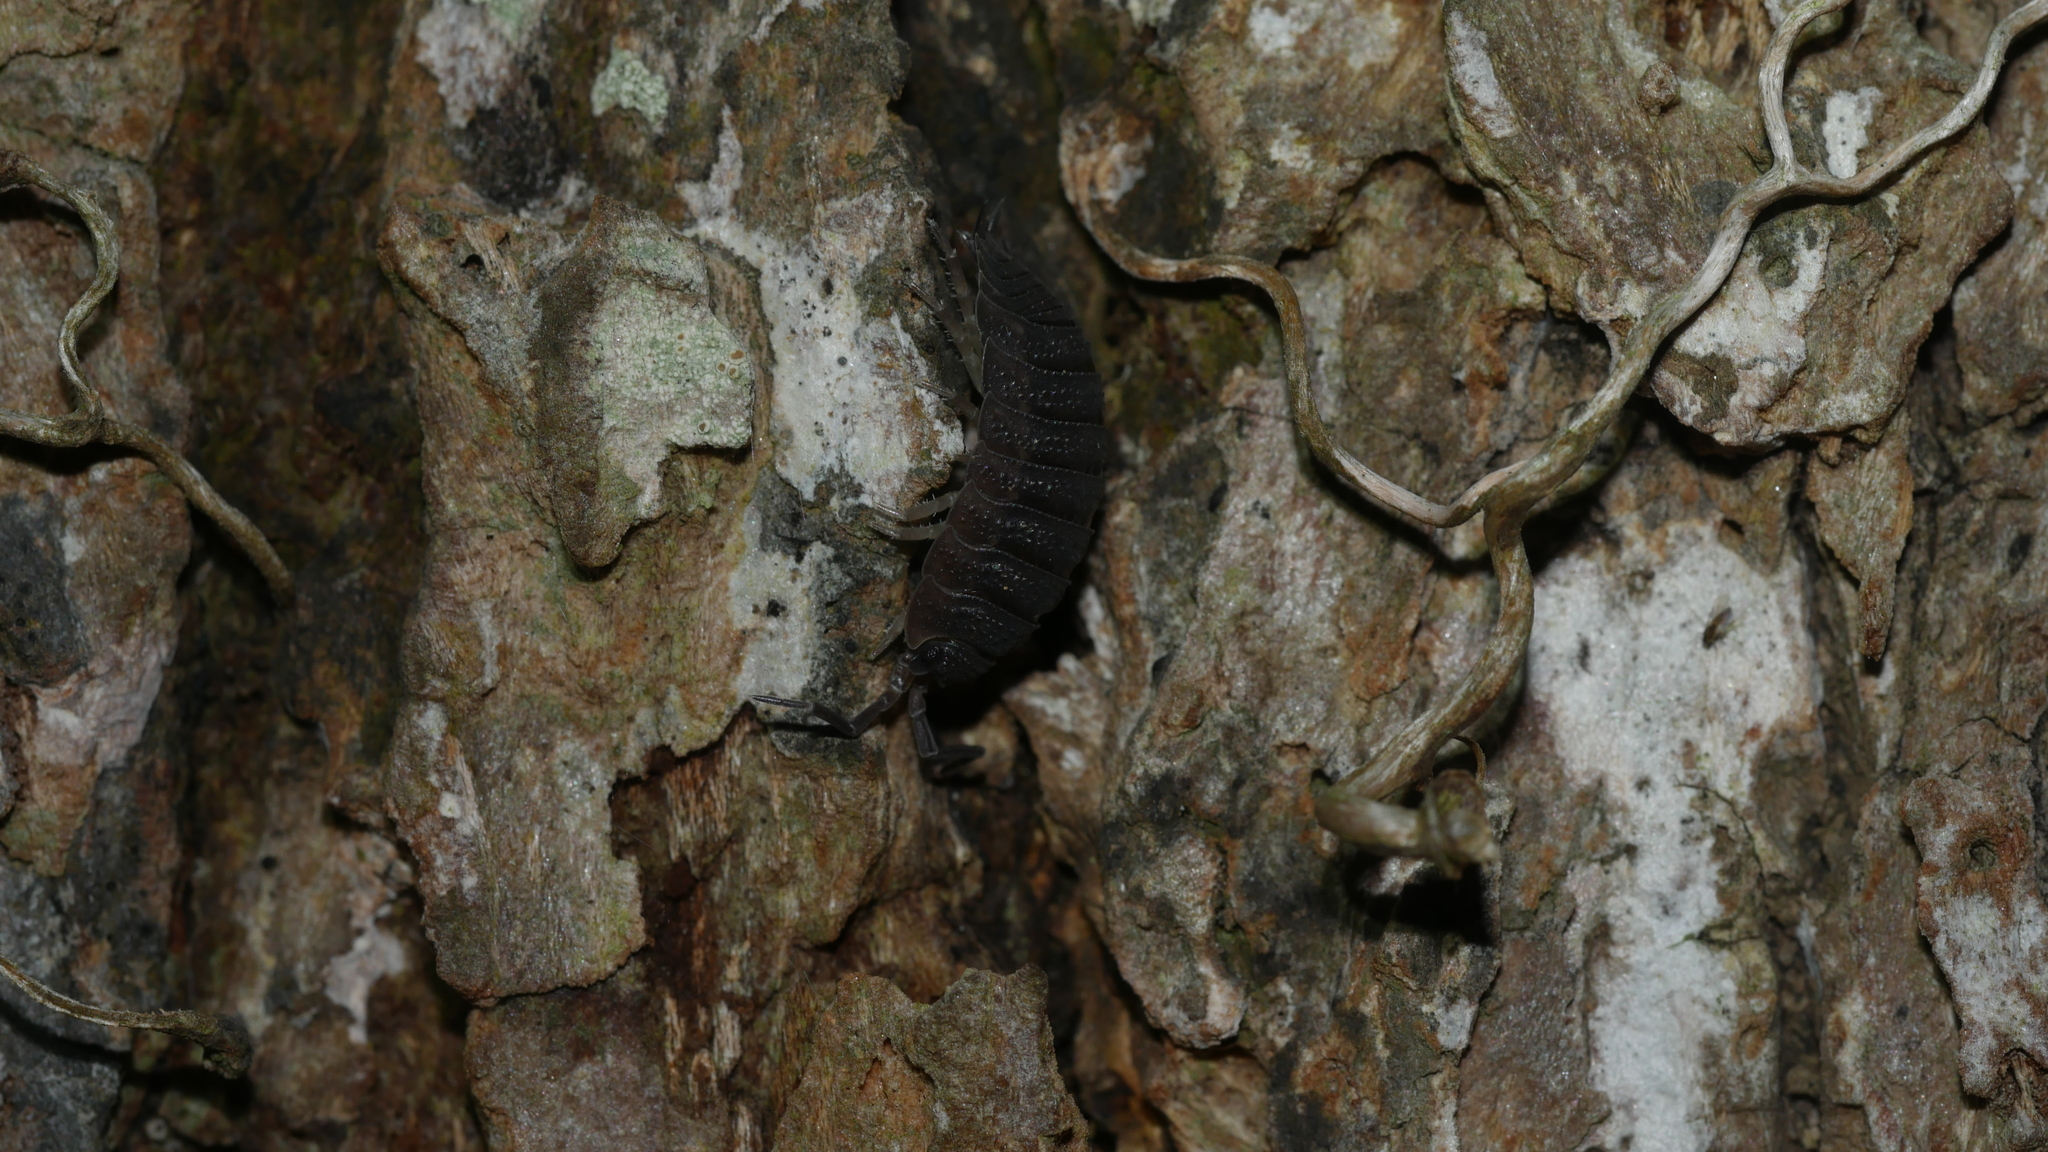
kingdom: Animalia
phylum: Arthropoda
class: Malacostraca
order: Isopoda
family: Porcellionidae
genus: Porcellio
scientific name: Porcellio scaber
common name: Common rough woodlouse
